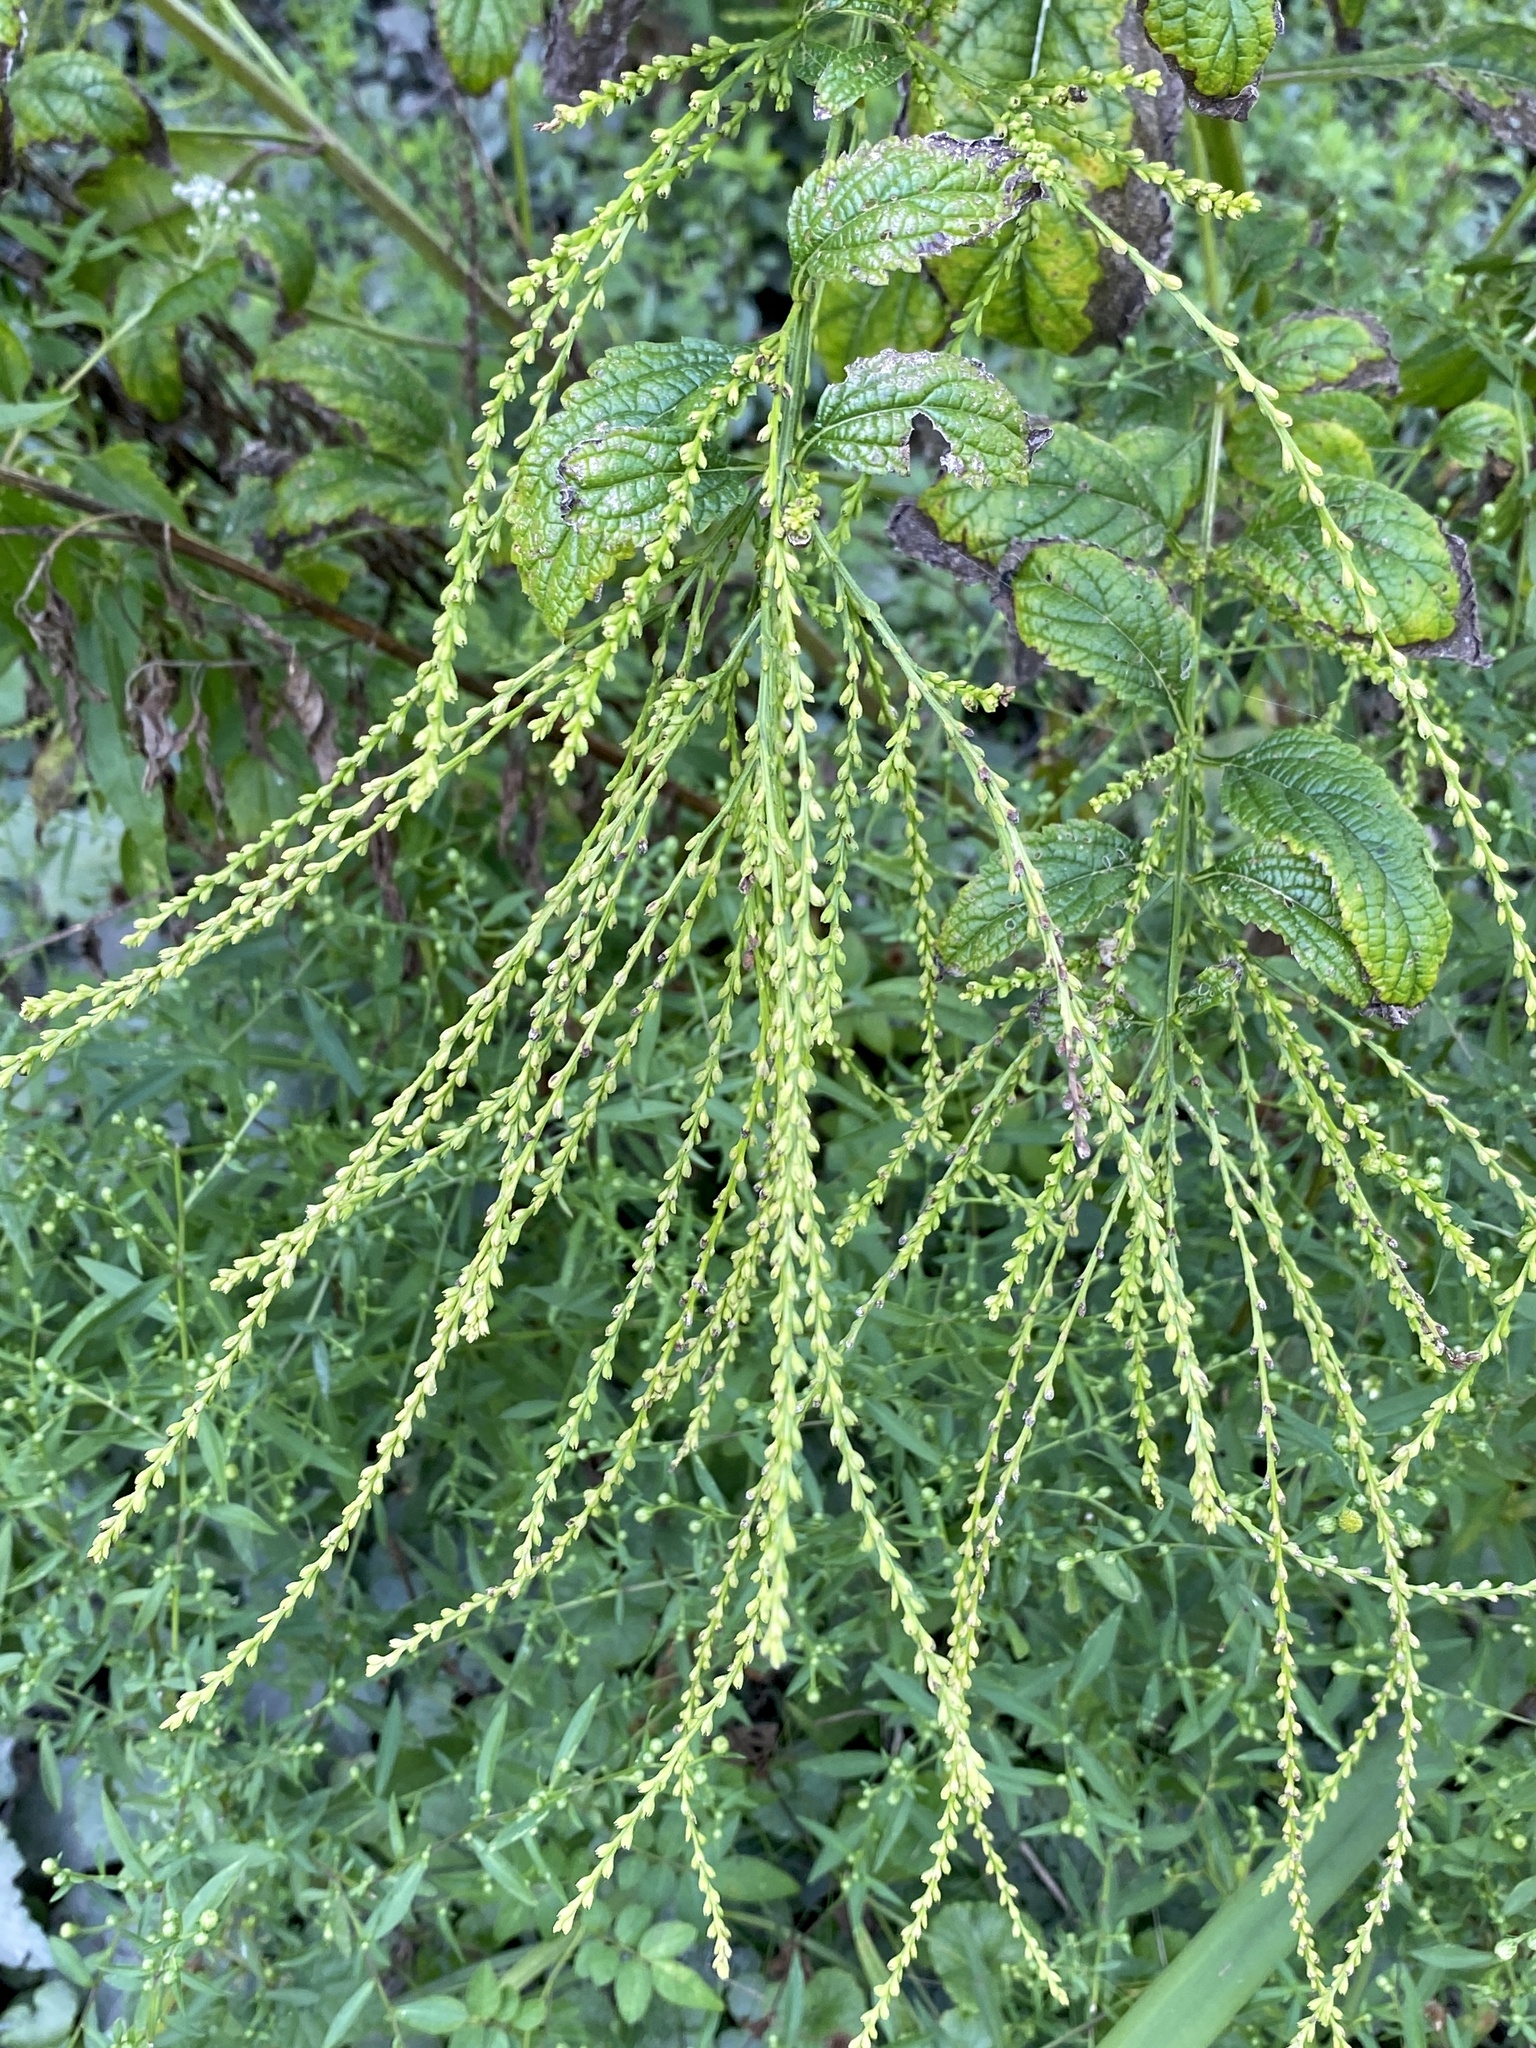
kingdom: Plantae
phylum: Tracheophyta
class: Magnoliopsida
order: Lamiales
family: Verbenaceae
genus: Verbena
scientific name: Verbena urticifolia
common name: Nettle-leaved vervain
